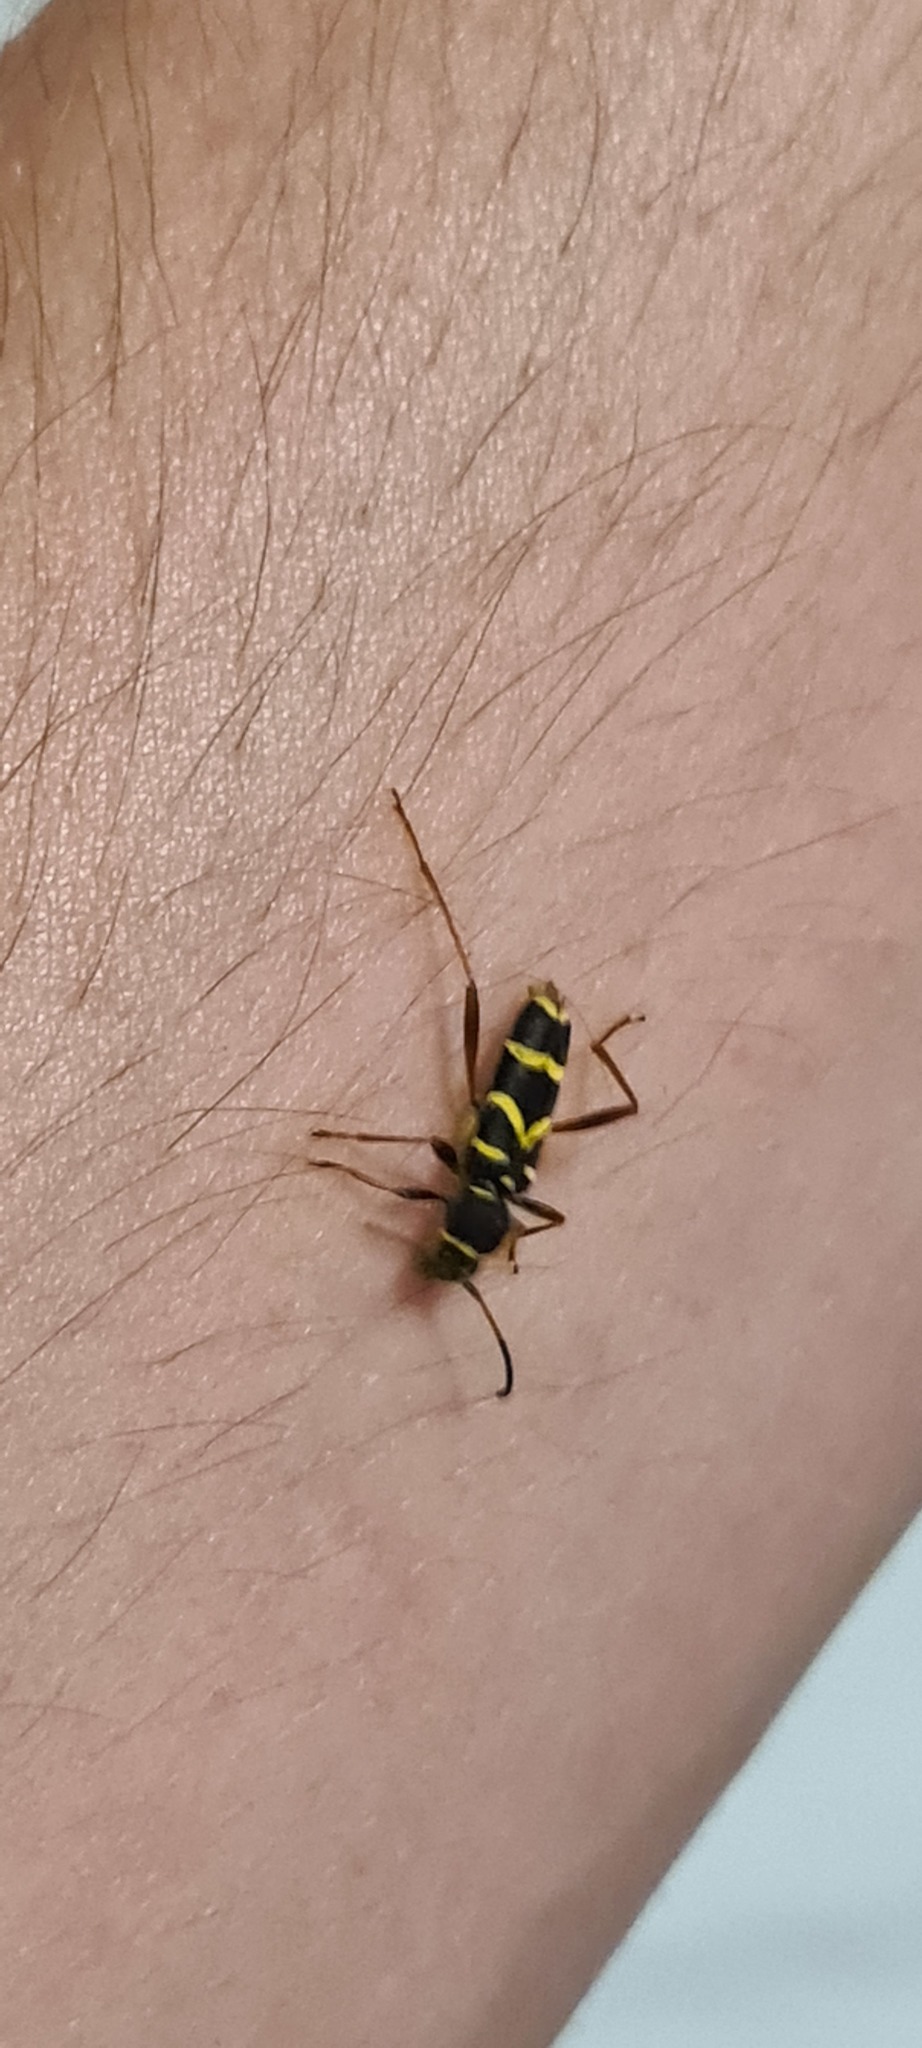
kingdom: Animalia
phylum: Arthropoda
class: Insecta
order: Coleoptera
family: Cerambycidae
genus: Clytus
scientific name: Clytus arietis
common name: Wasp beetle
